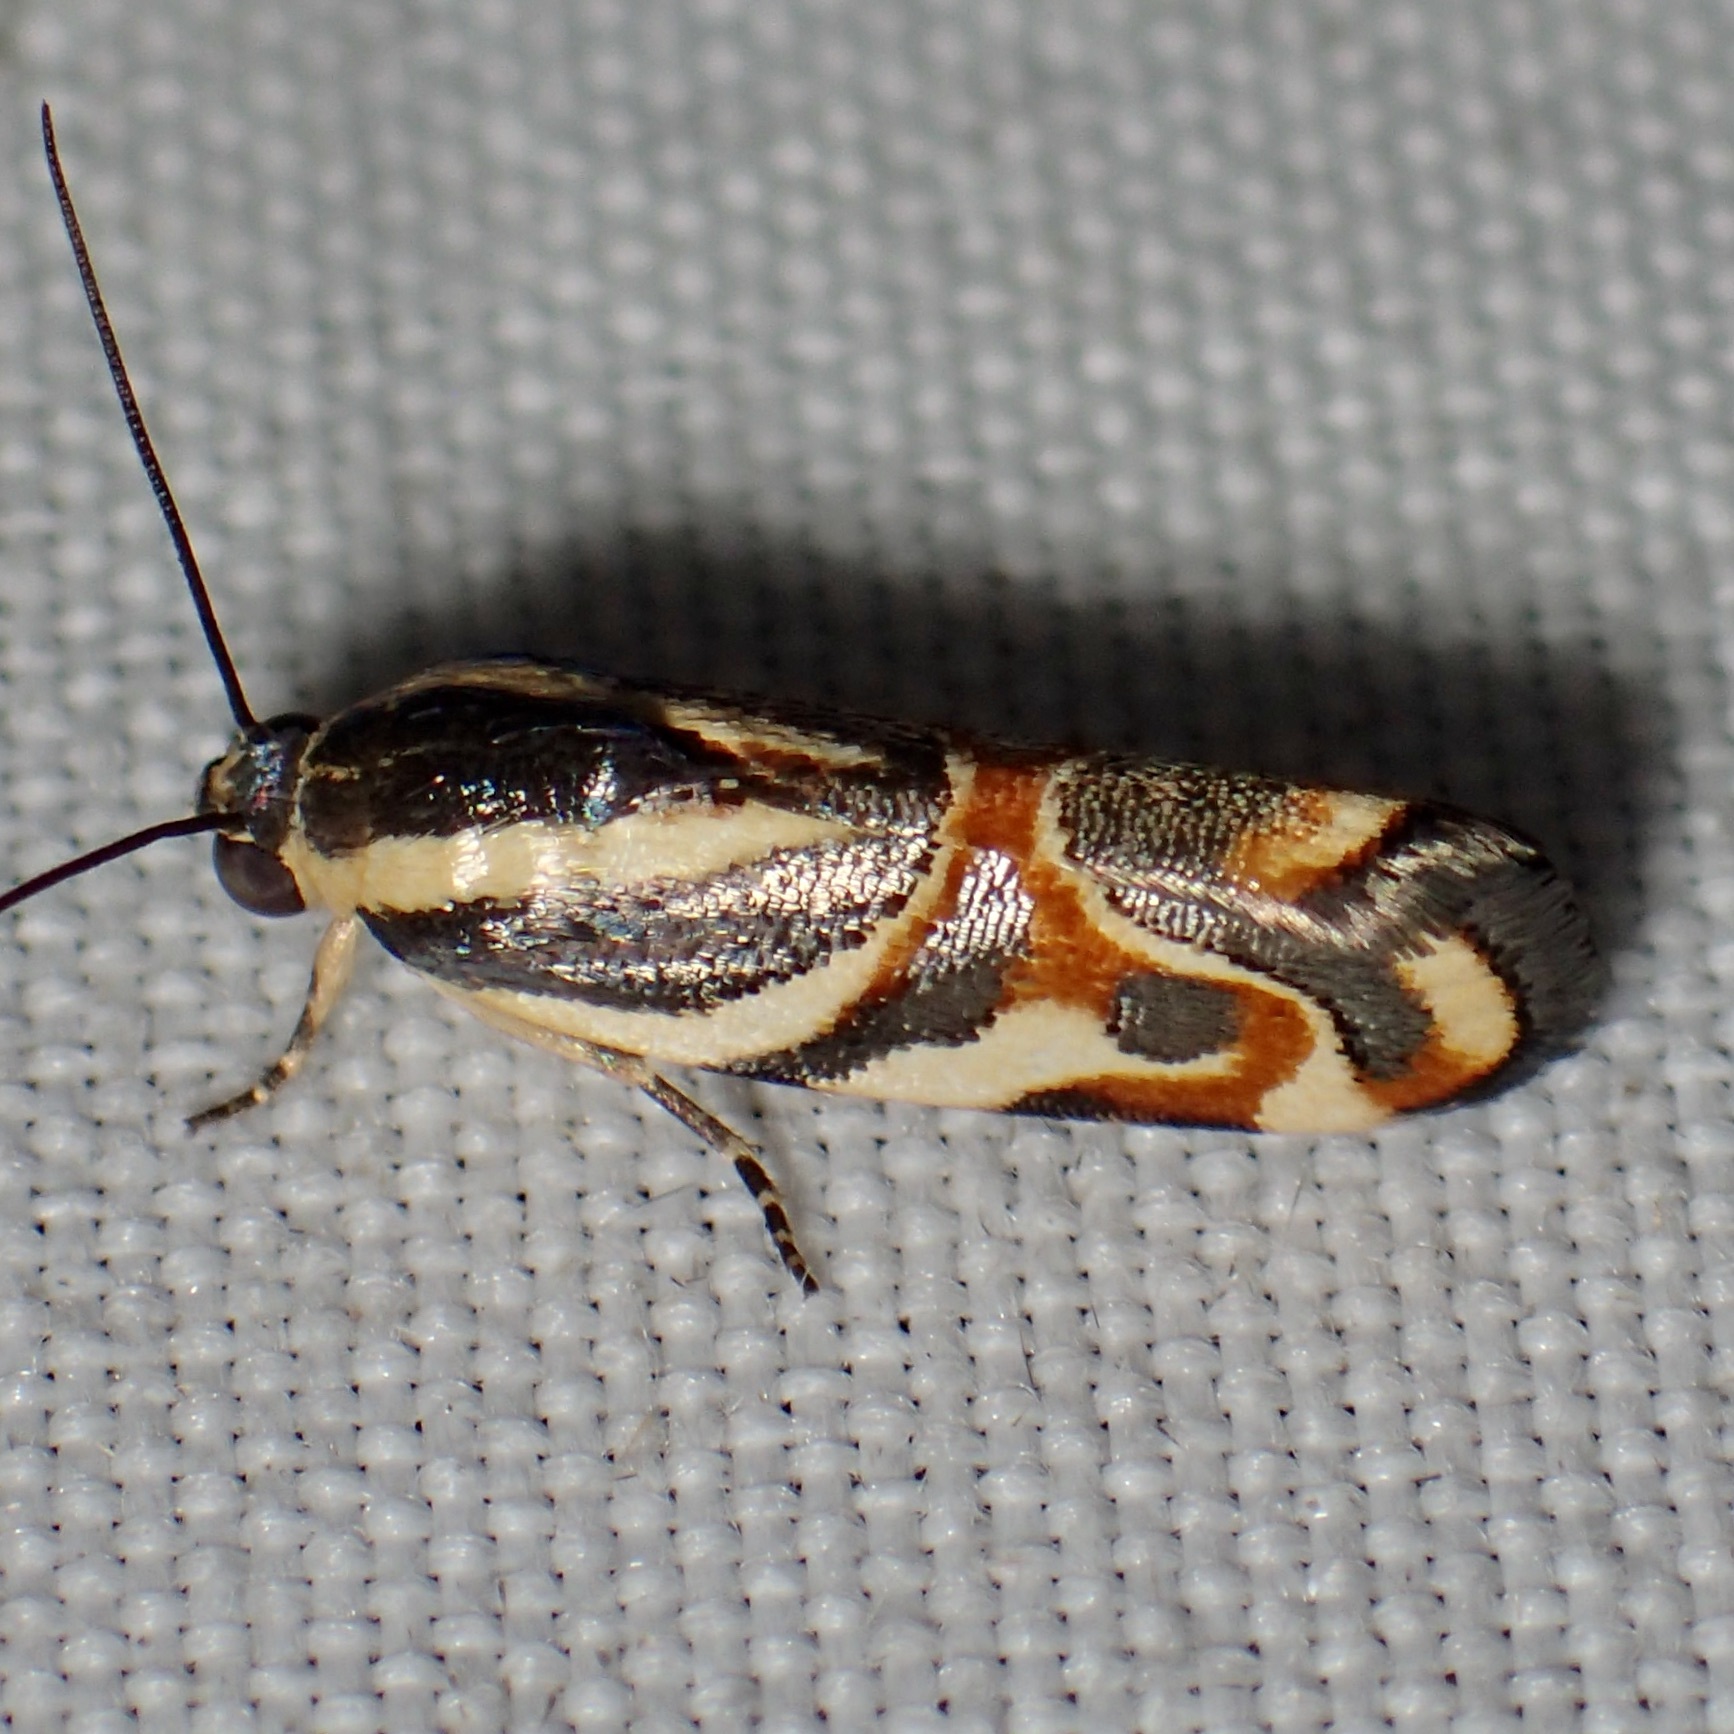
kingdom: Animalia
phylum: Arthropoda
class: Insecta
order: Lepidoptera
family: Noctuidae
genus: Spragueia
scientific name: Spragueia magnifica
